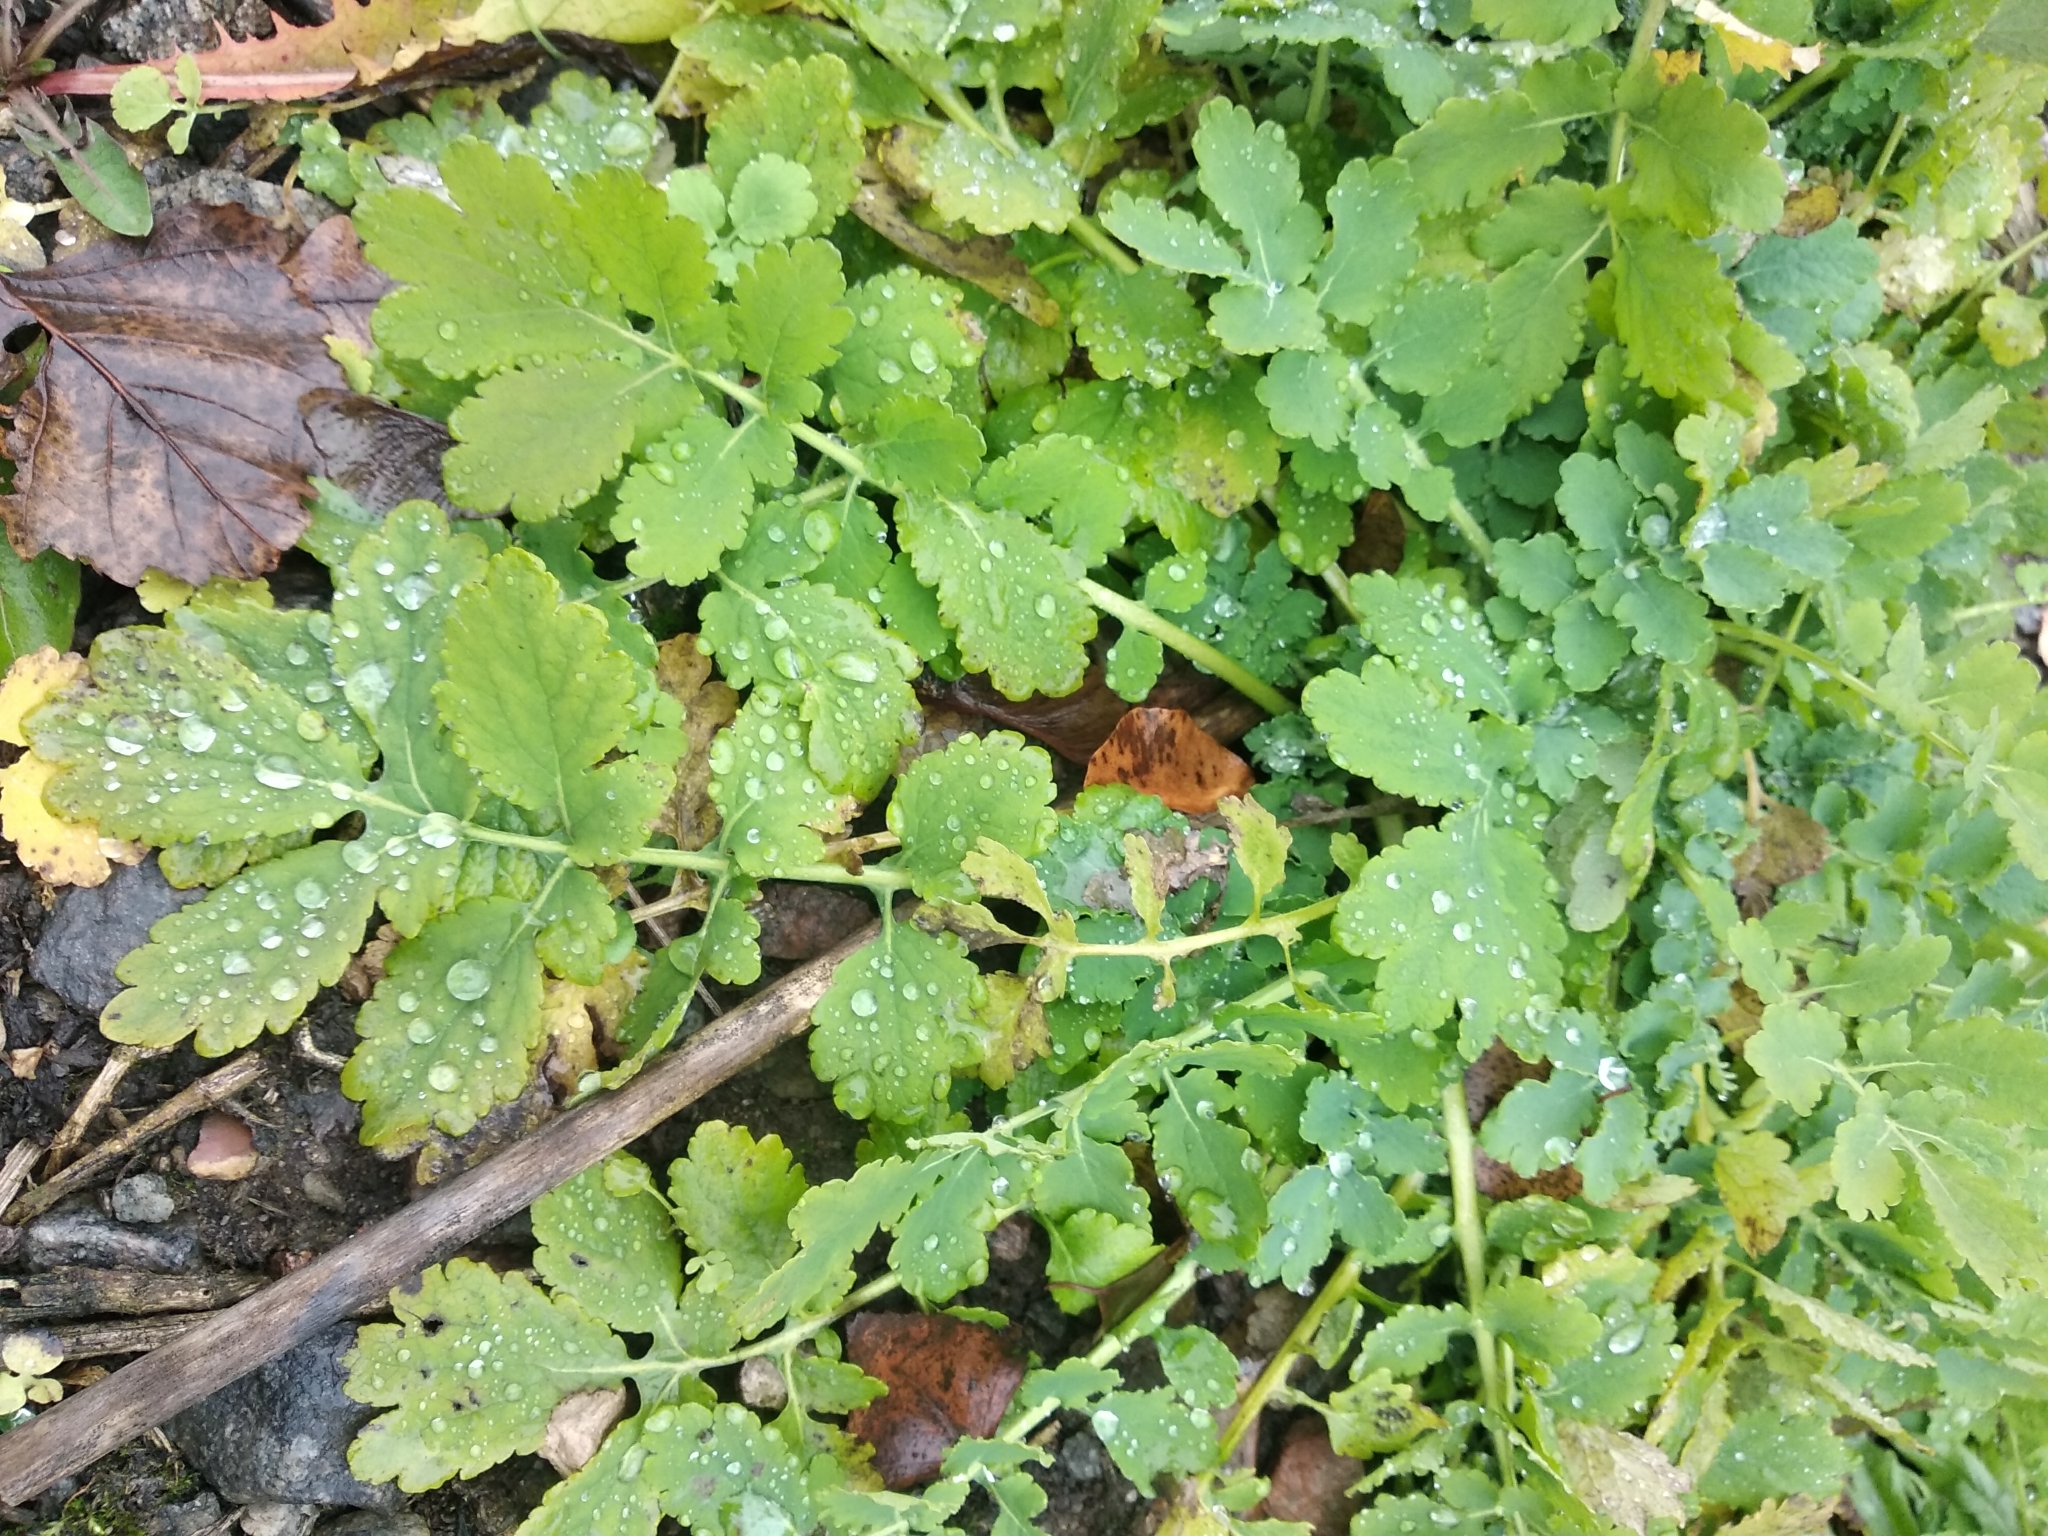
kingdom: Plantae
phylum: Tracheophyta
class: Magnoliopsida
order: Ranunculales
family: Papaveraceae
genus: Chelidonium
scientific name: Chelidonium majus
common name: Greater celandine
